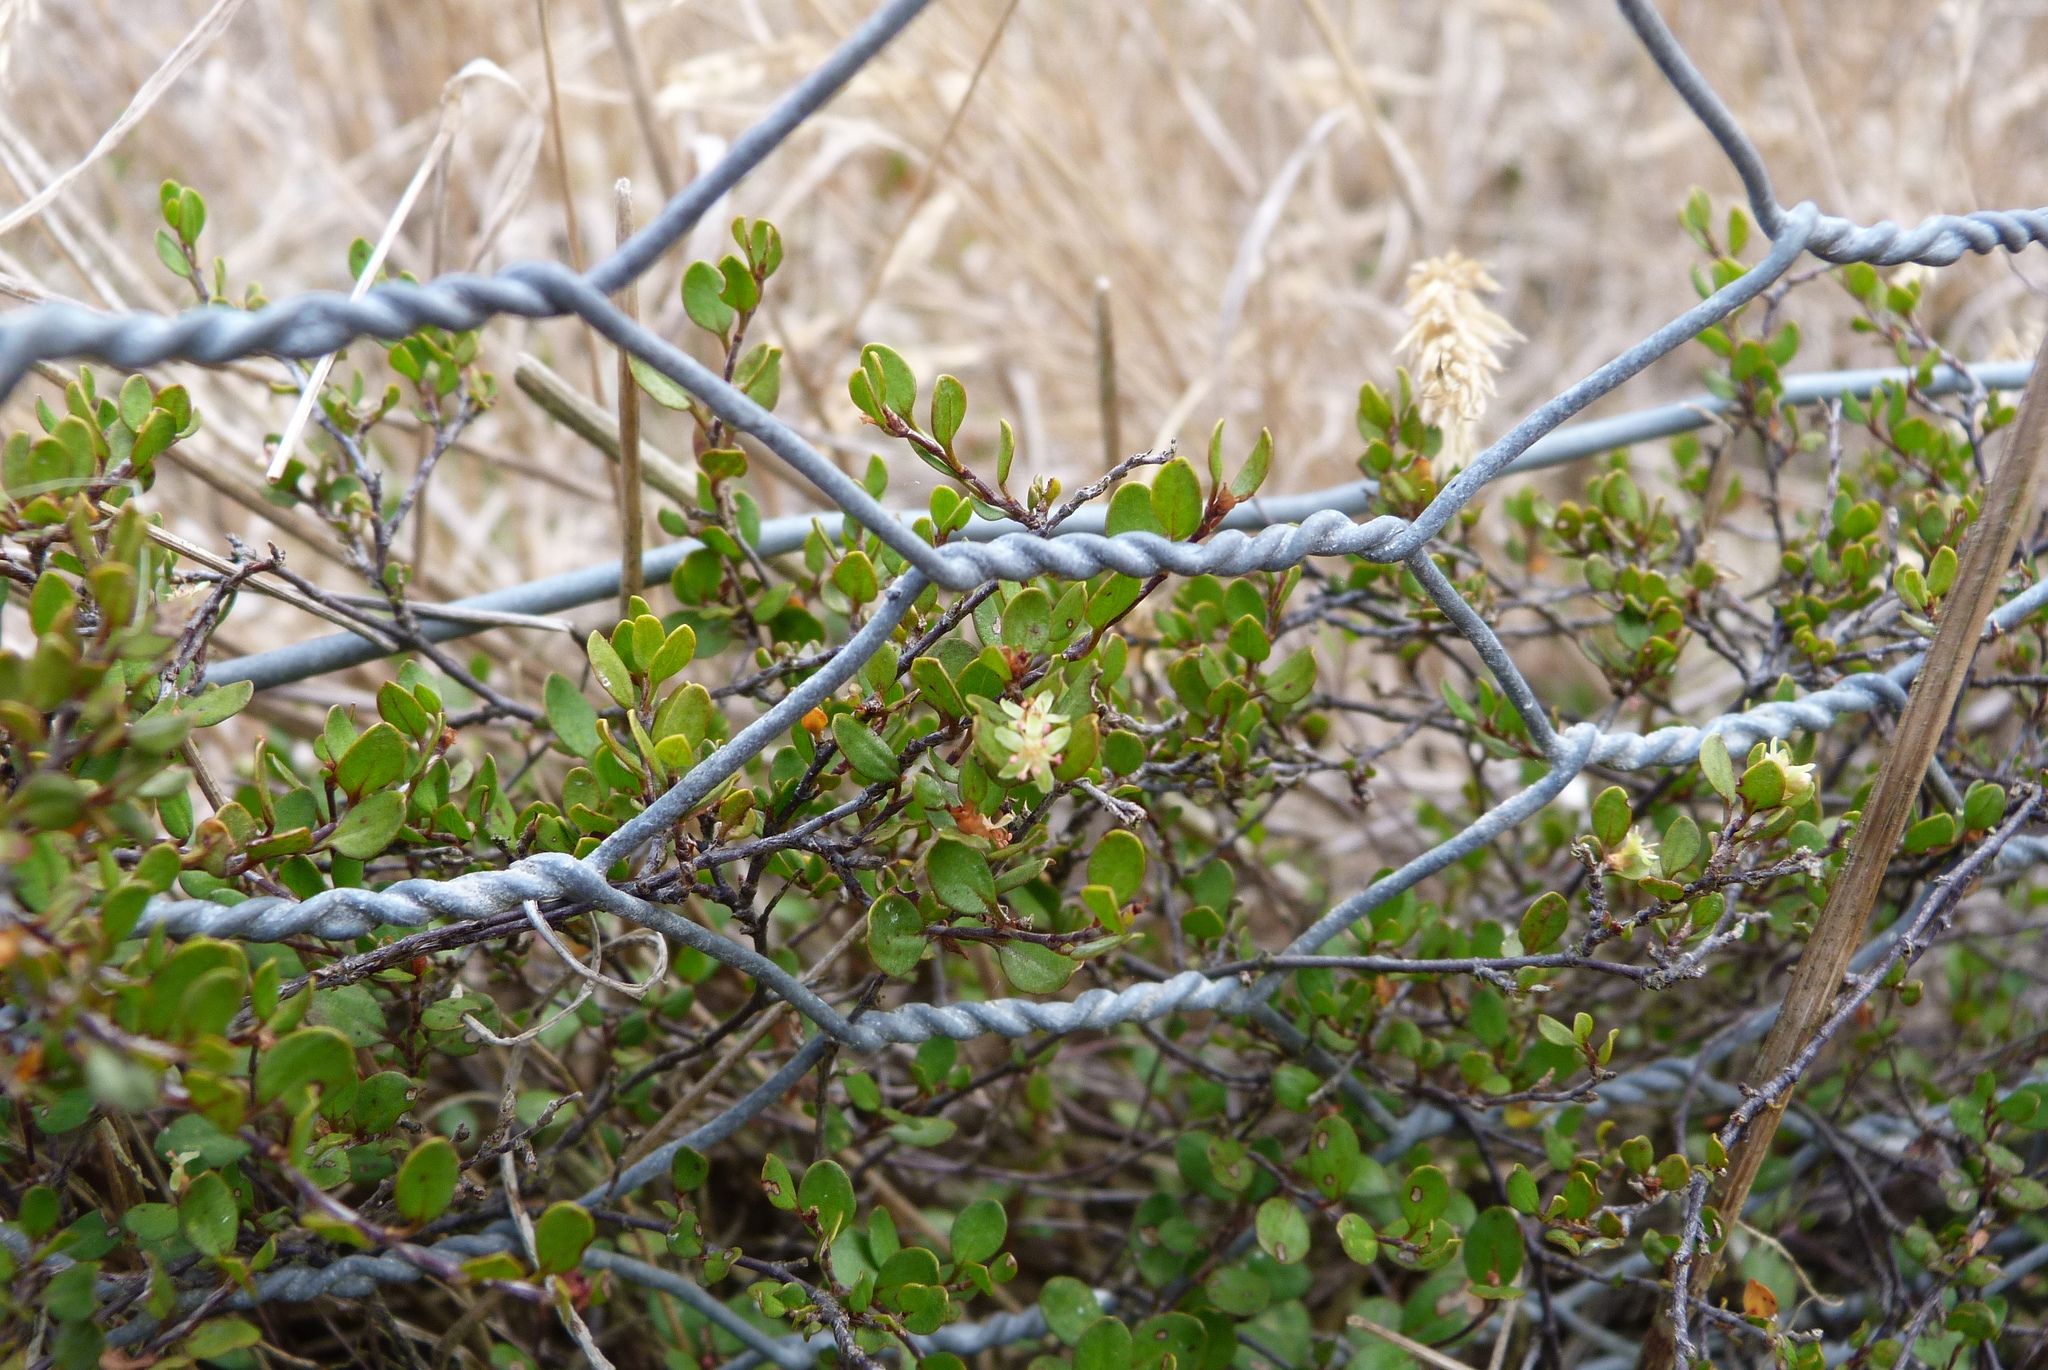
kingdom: Plantae
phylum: Tracheophyta
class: Magnoliopsida
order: Caryophyllales
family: Polygonaceae
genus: Muehlenbeckia
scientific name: Muehlenbeckia axillaris
